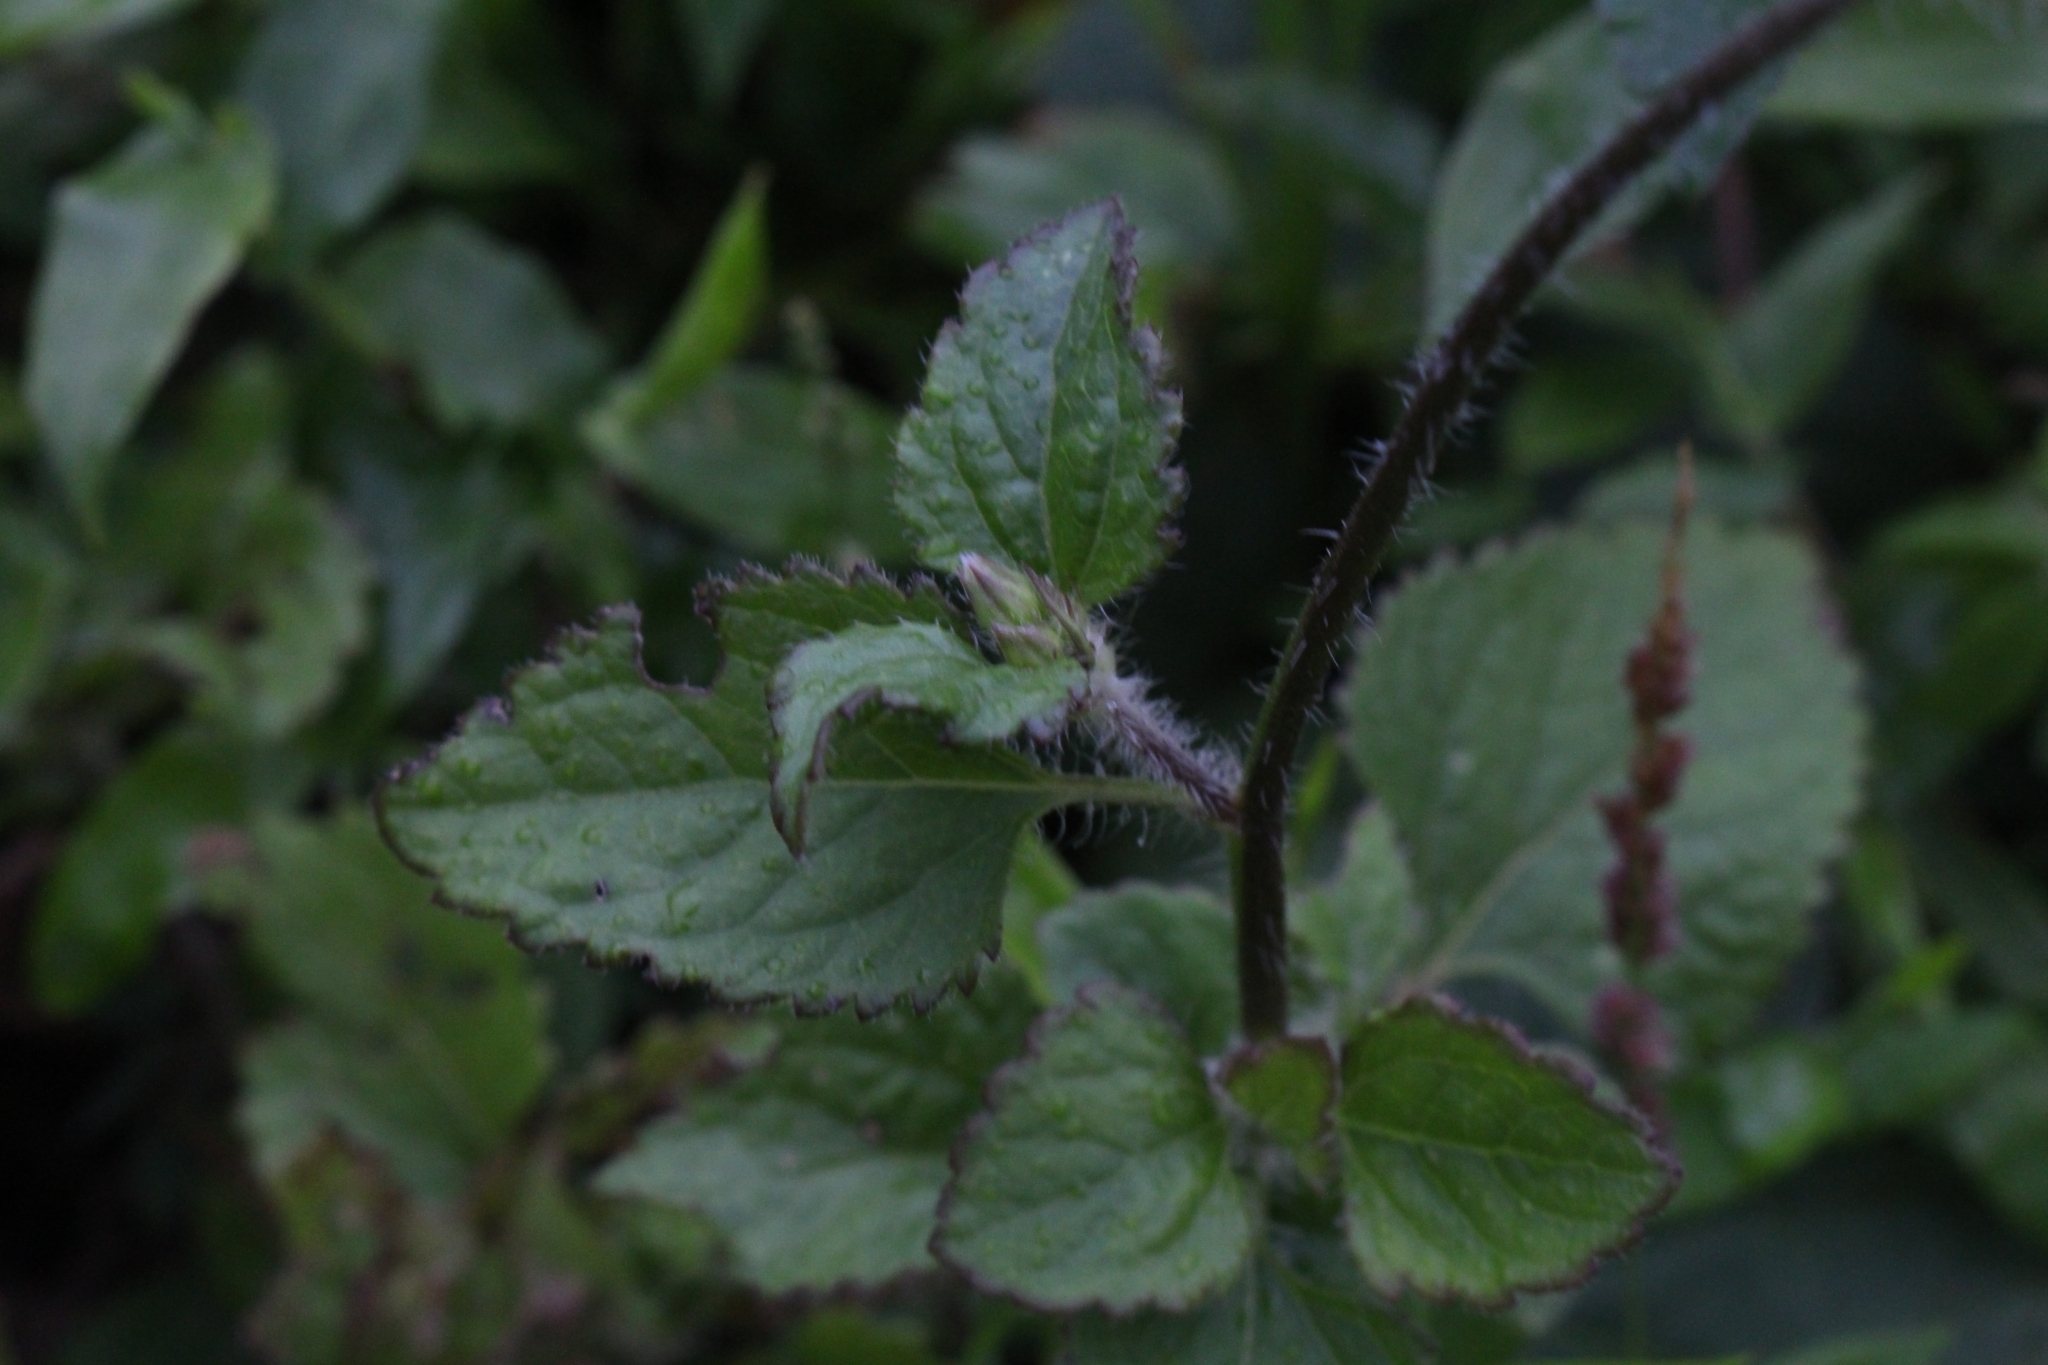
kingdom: Plantae
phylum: Tracheophyta
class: Magnoliopsida
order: Asterales
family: Asteraceae
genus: Ageratum
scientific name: Ageratum conyzoides
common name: Tropical whiteweed
